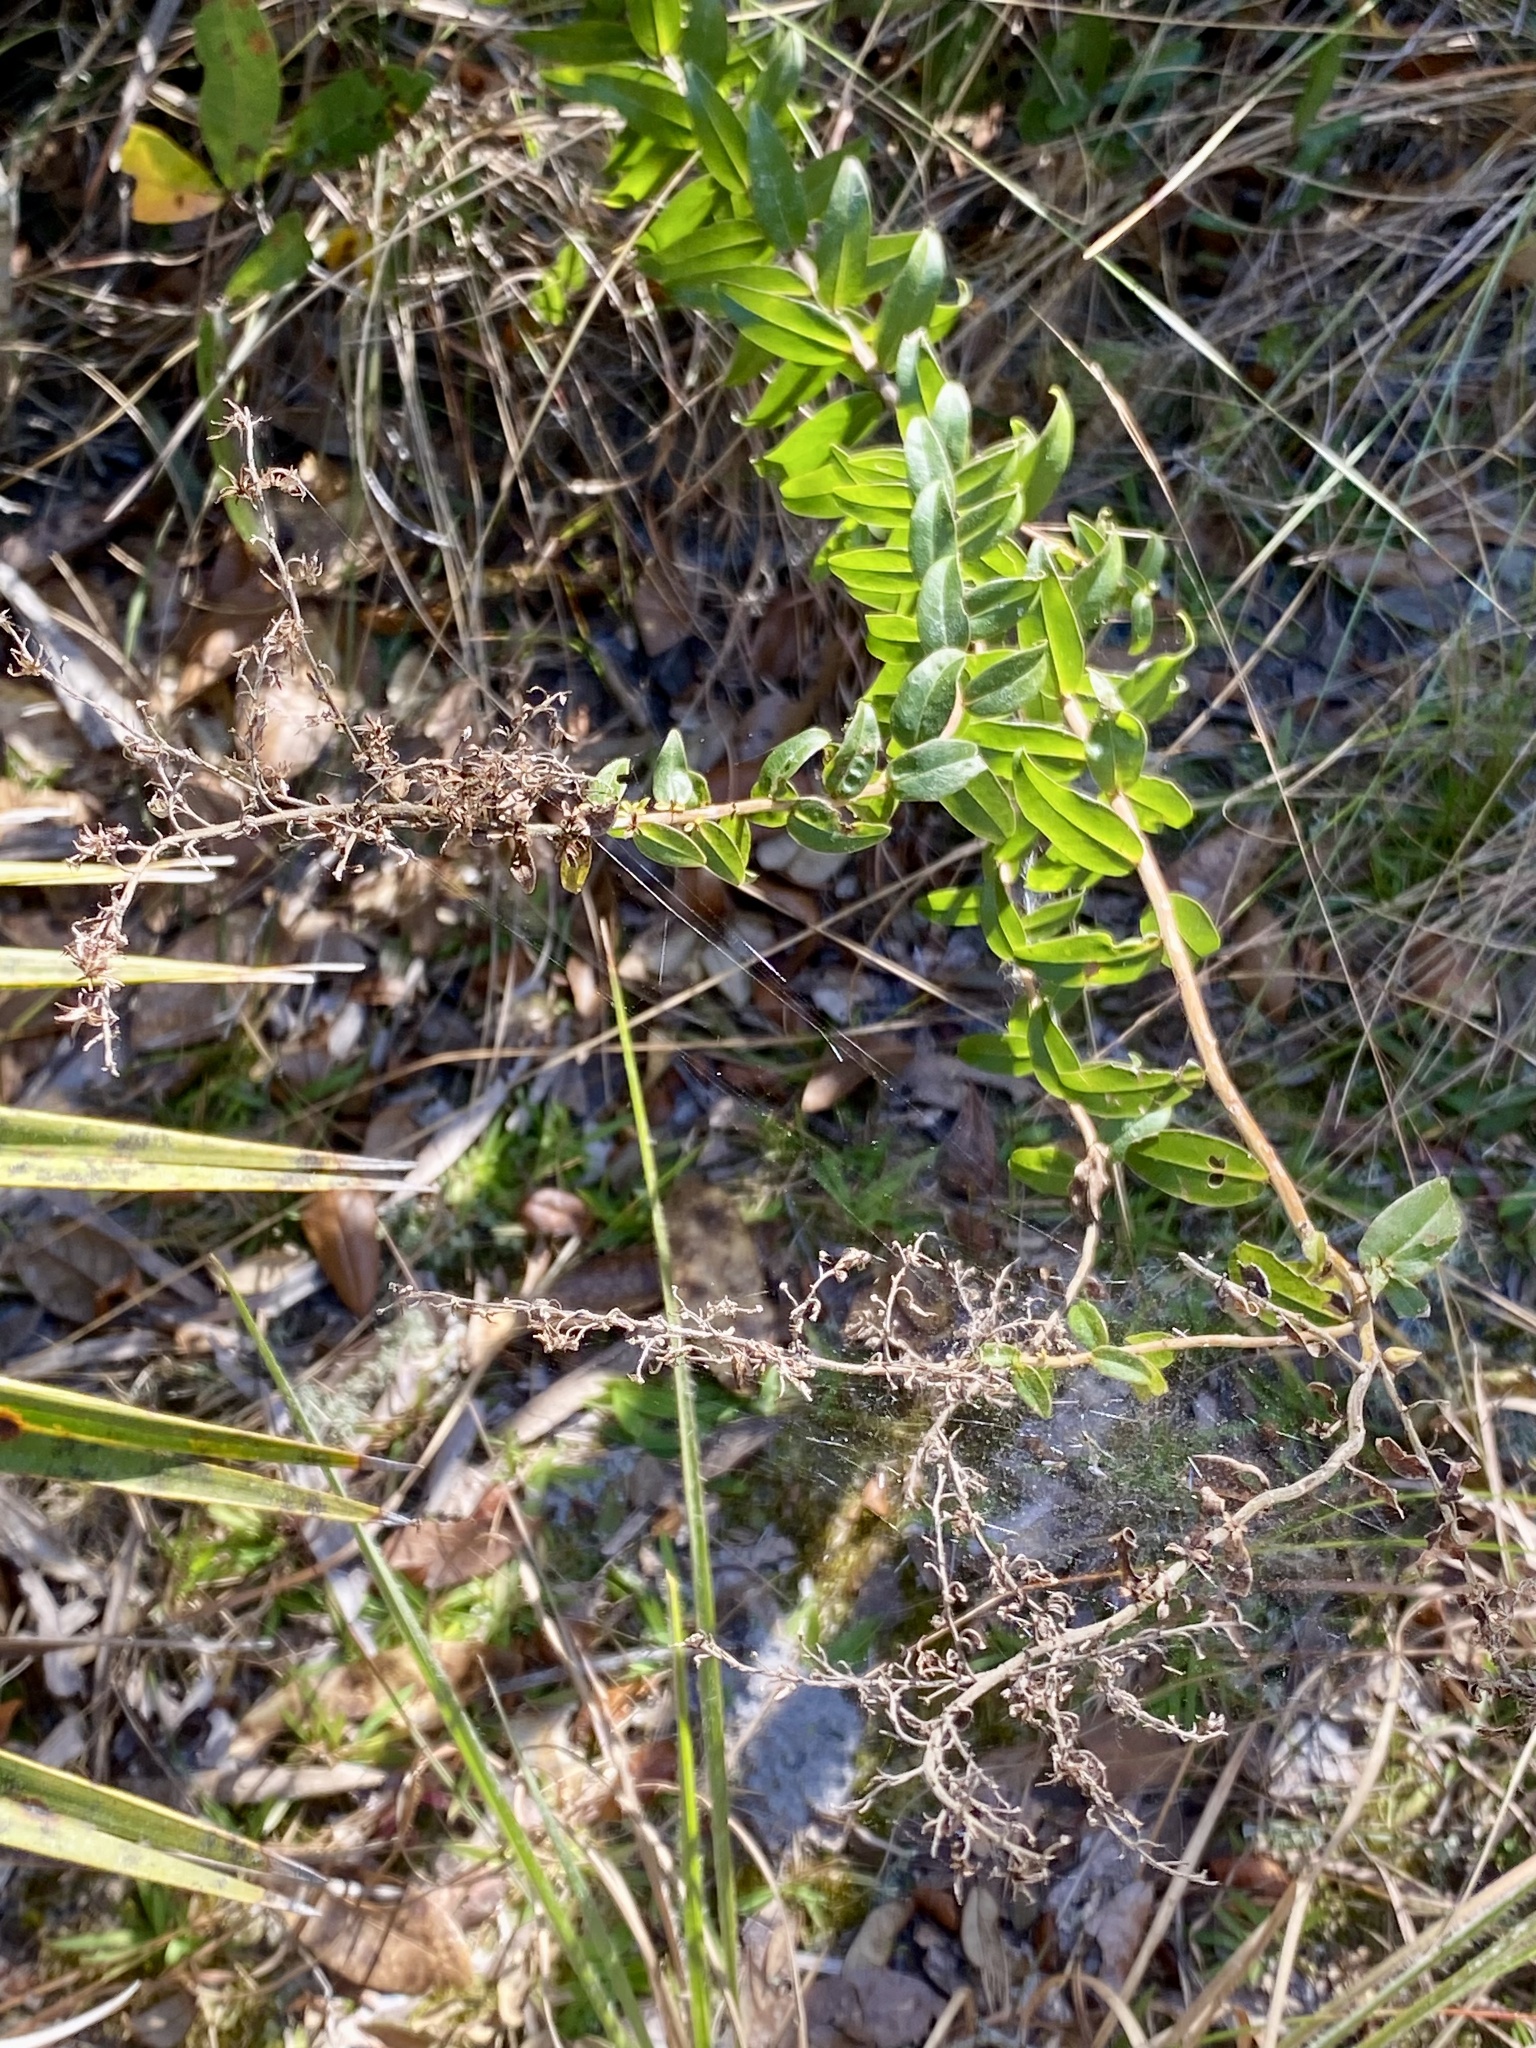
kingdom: Plantae
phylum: Tracheophyta
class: Magnoliopsida
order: Asterales
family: Asteraceae
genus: Solidago
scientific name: Solidago chapmanii
